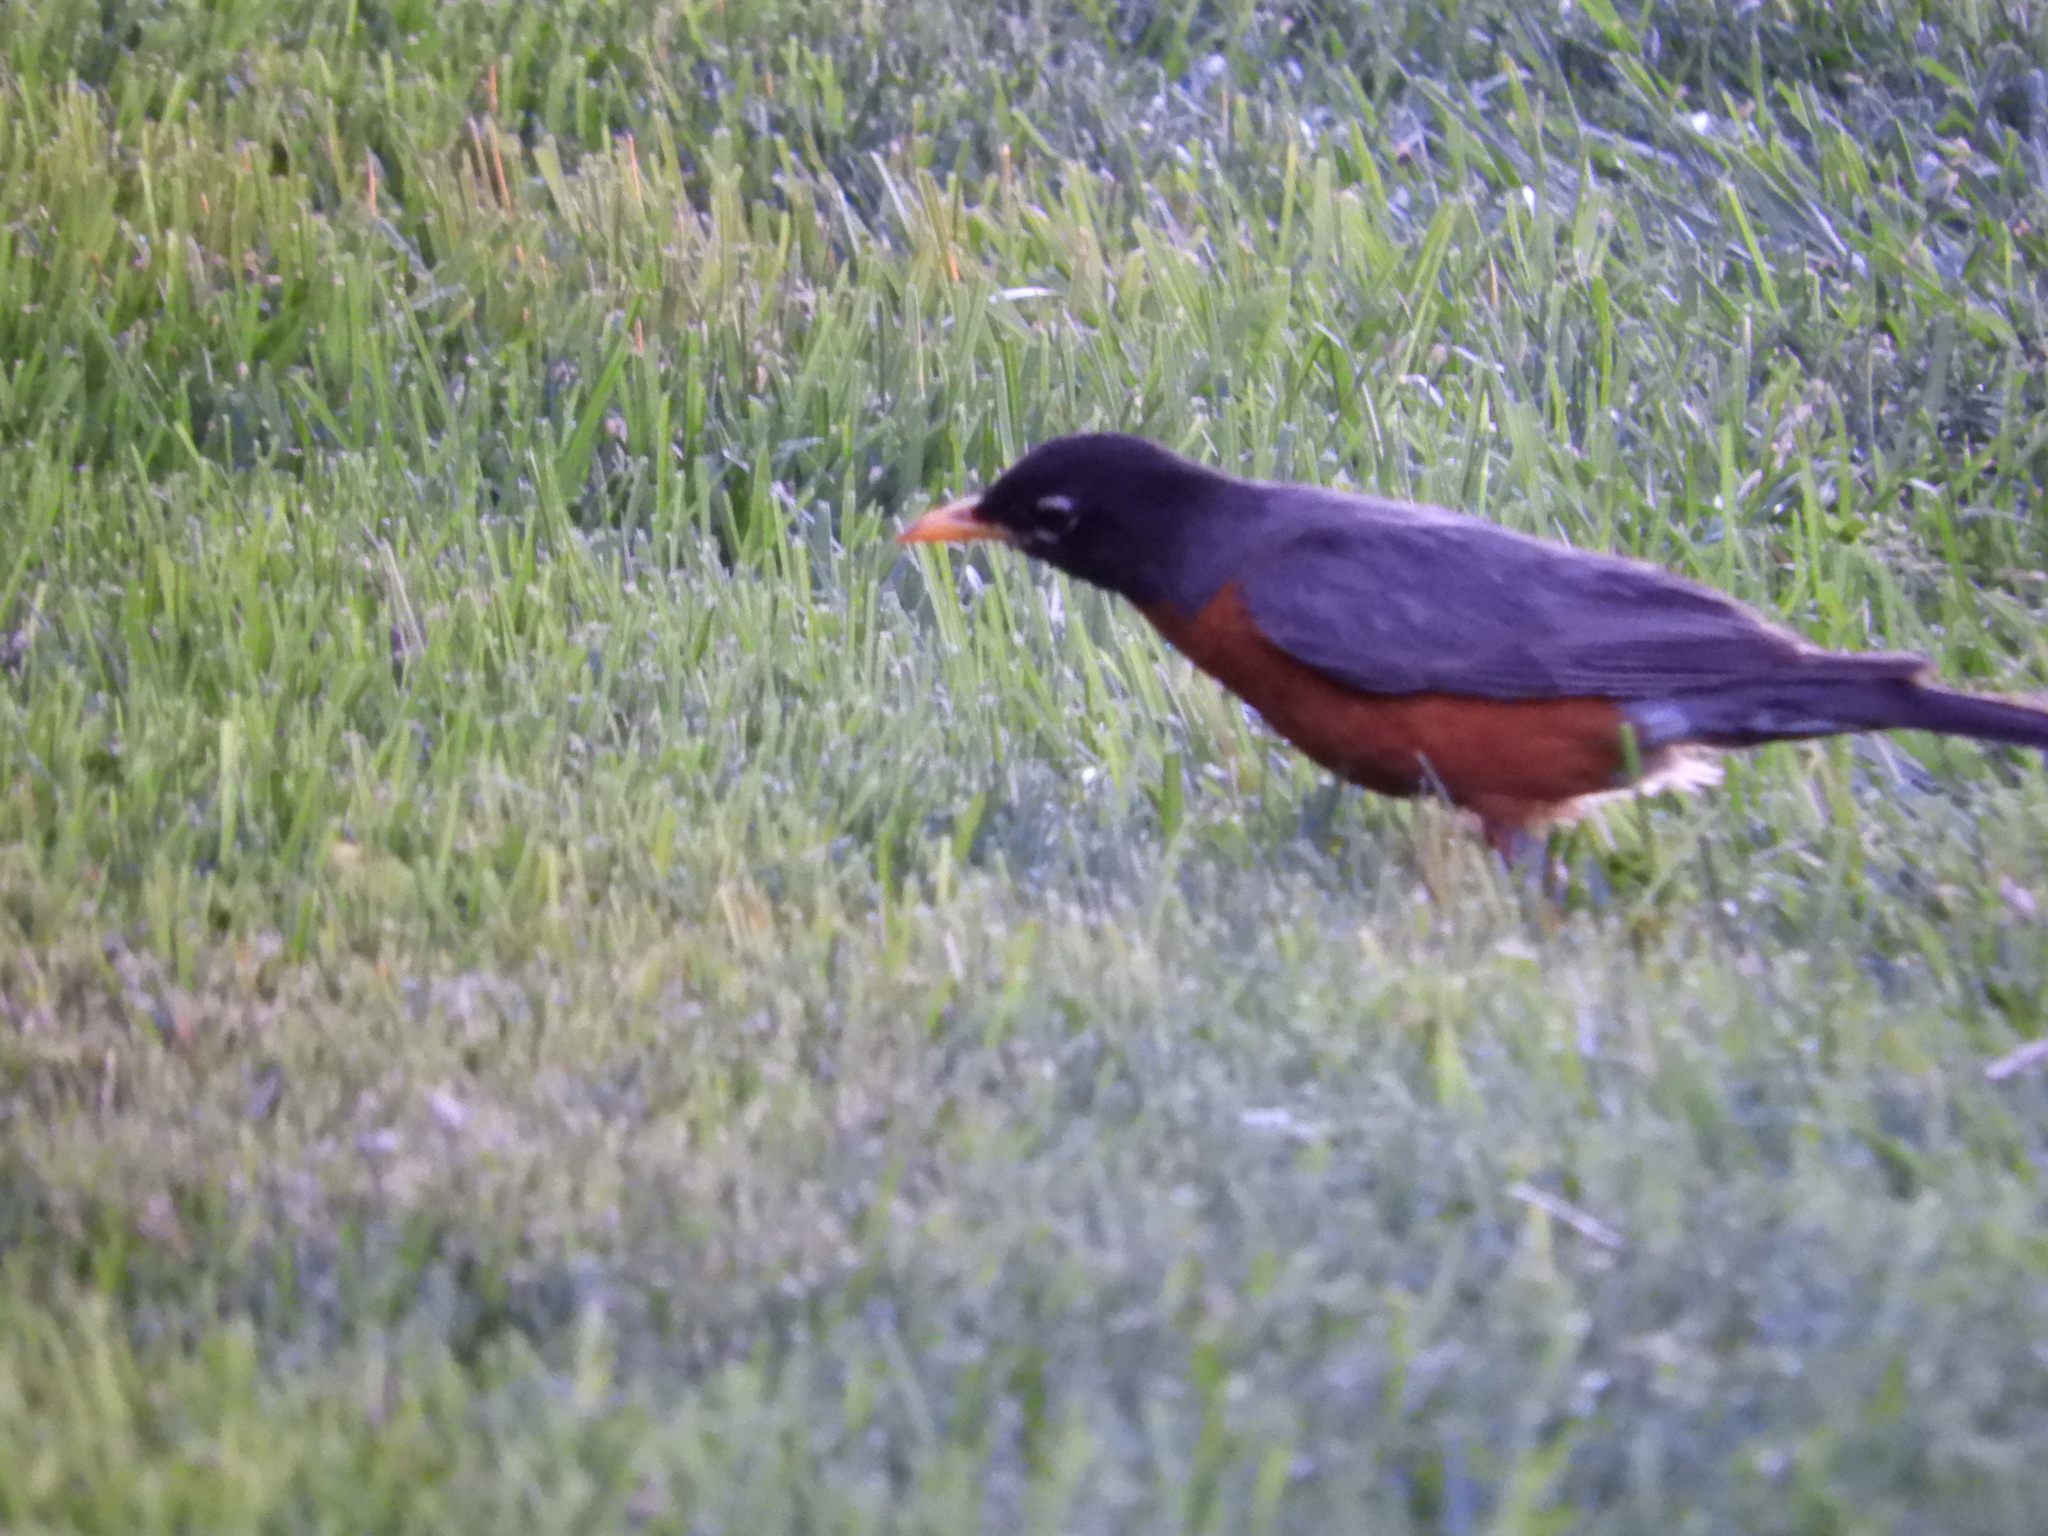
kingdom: Animalia
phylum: Chordata
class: Aves
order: Passeriformes
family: Turdidae
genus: Turdus
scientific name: Turdus migratorius
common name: American robin
